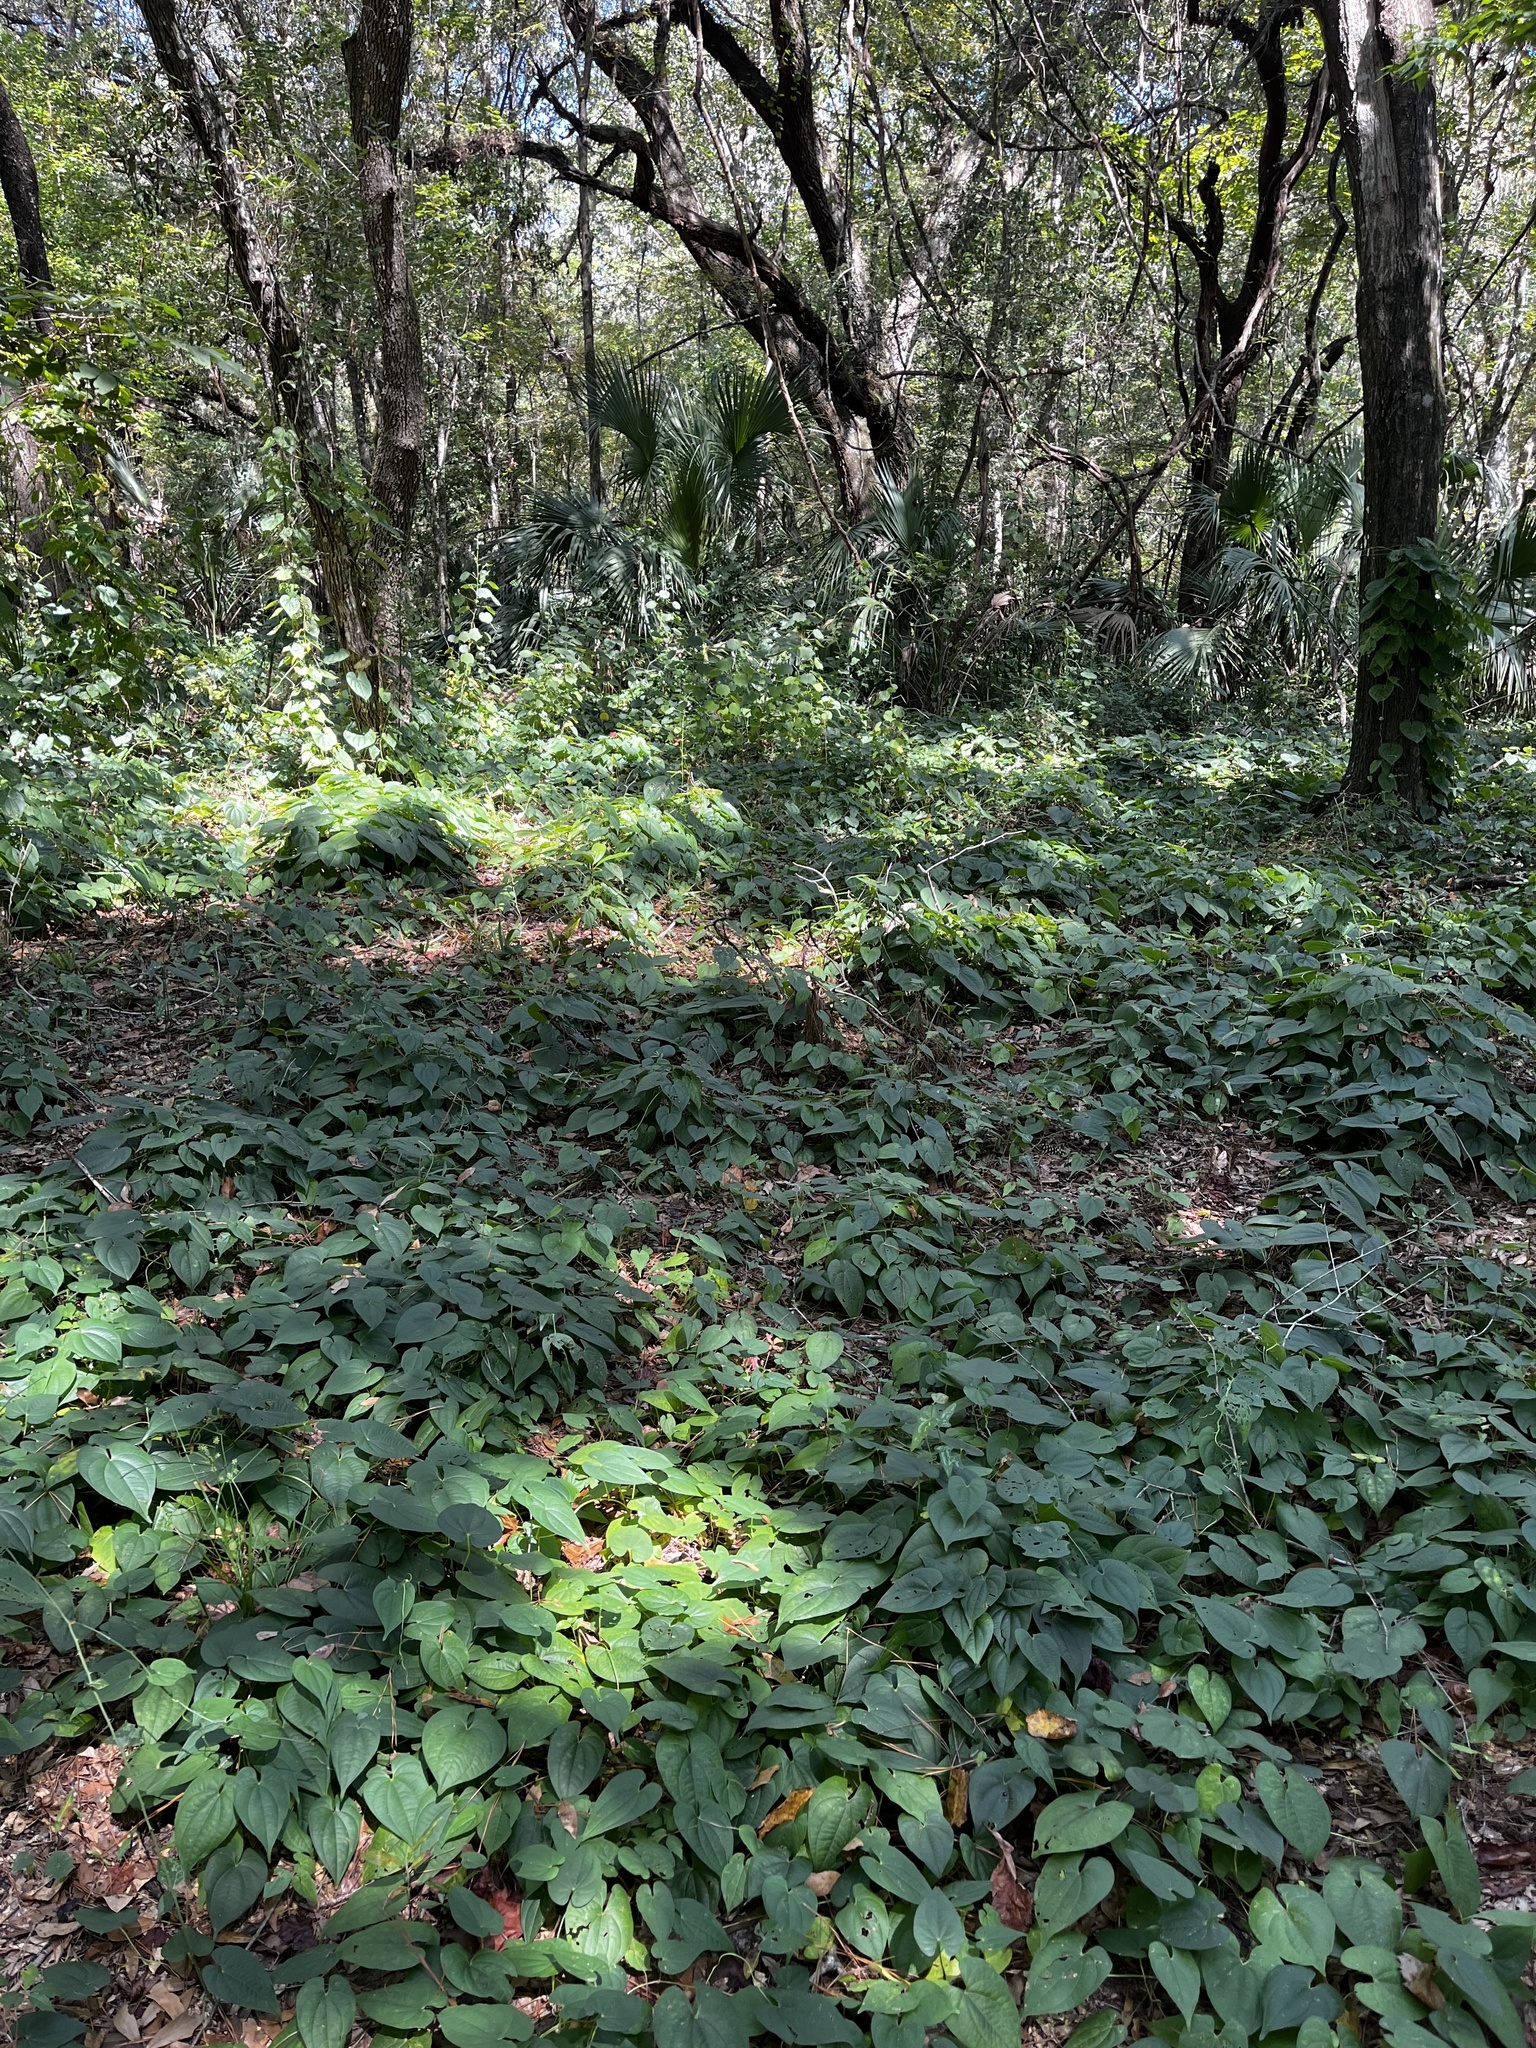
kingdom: Plantae
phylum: Tracheophyta
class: Liliopsida
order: Dioscoreales
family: Dioscoreaceae
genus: Dioscorea
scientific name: Dioscorea bulbifera
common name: Air yam
